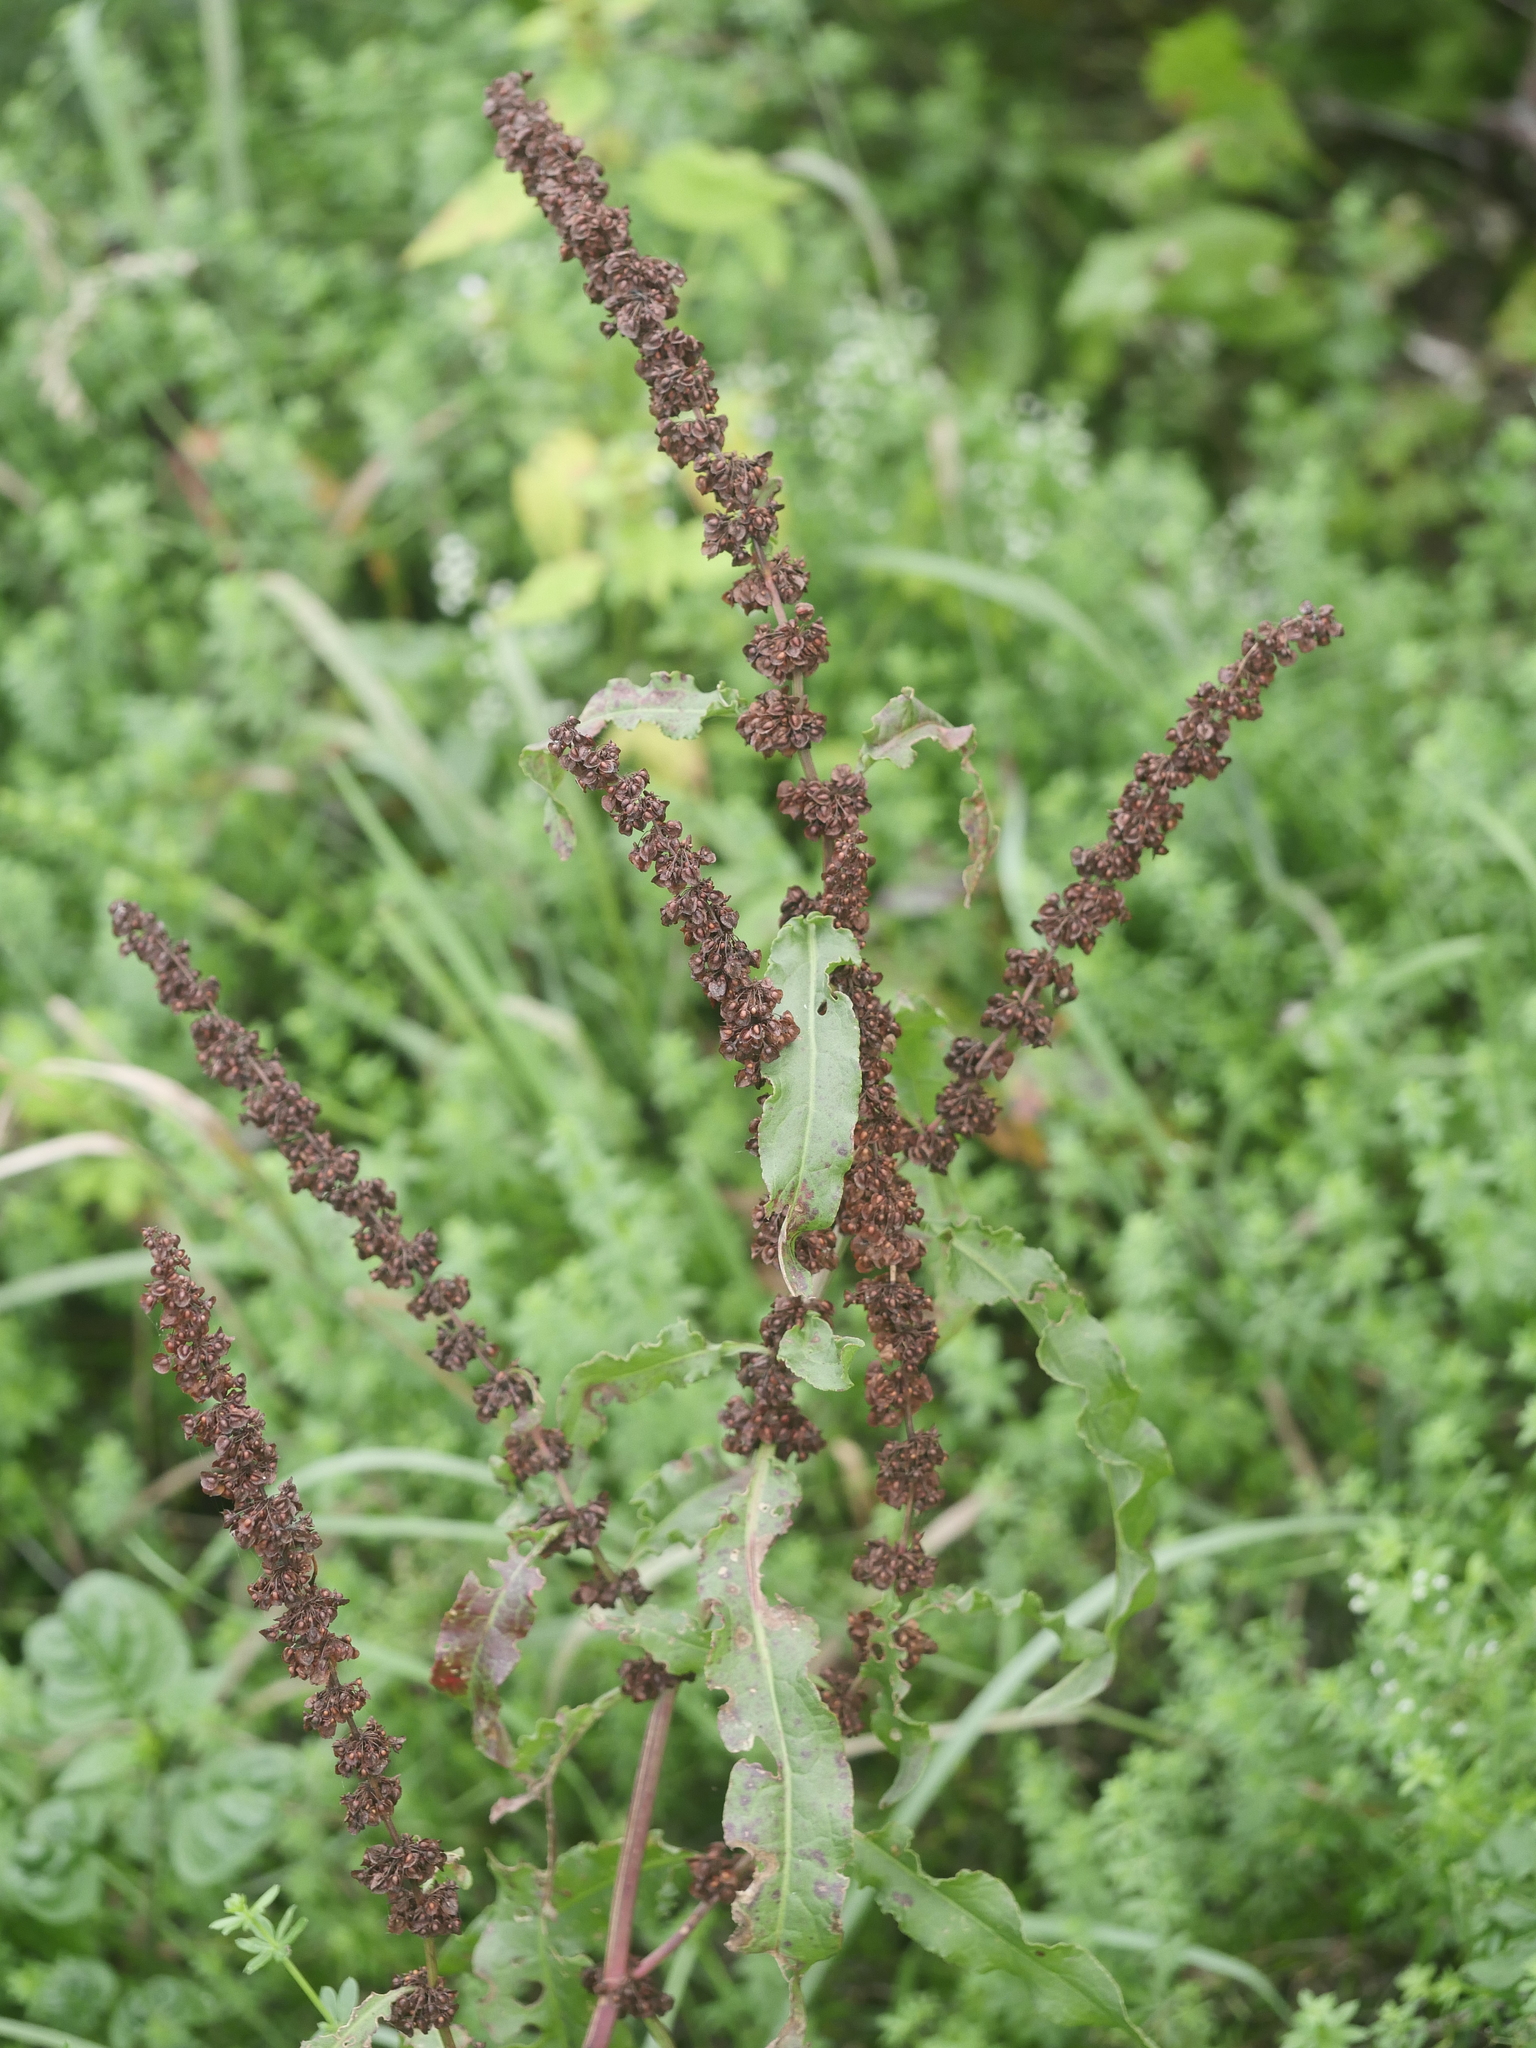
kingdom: Plantae
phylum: Tracheophyta
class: Magnoliopsida
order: Caryophyllales
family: Polygonaceae
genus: Rumex
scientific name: Rumex crispus
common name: Curled dock
